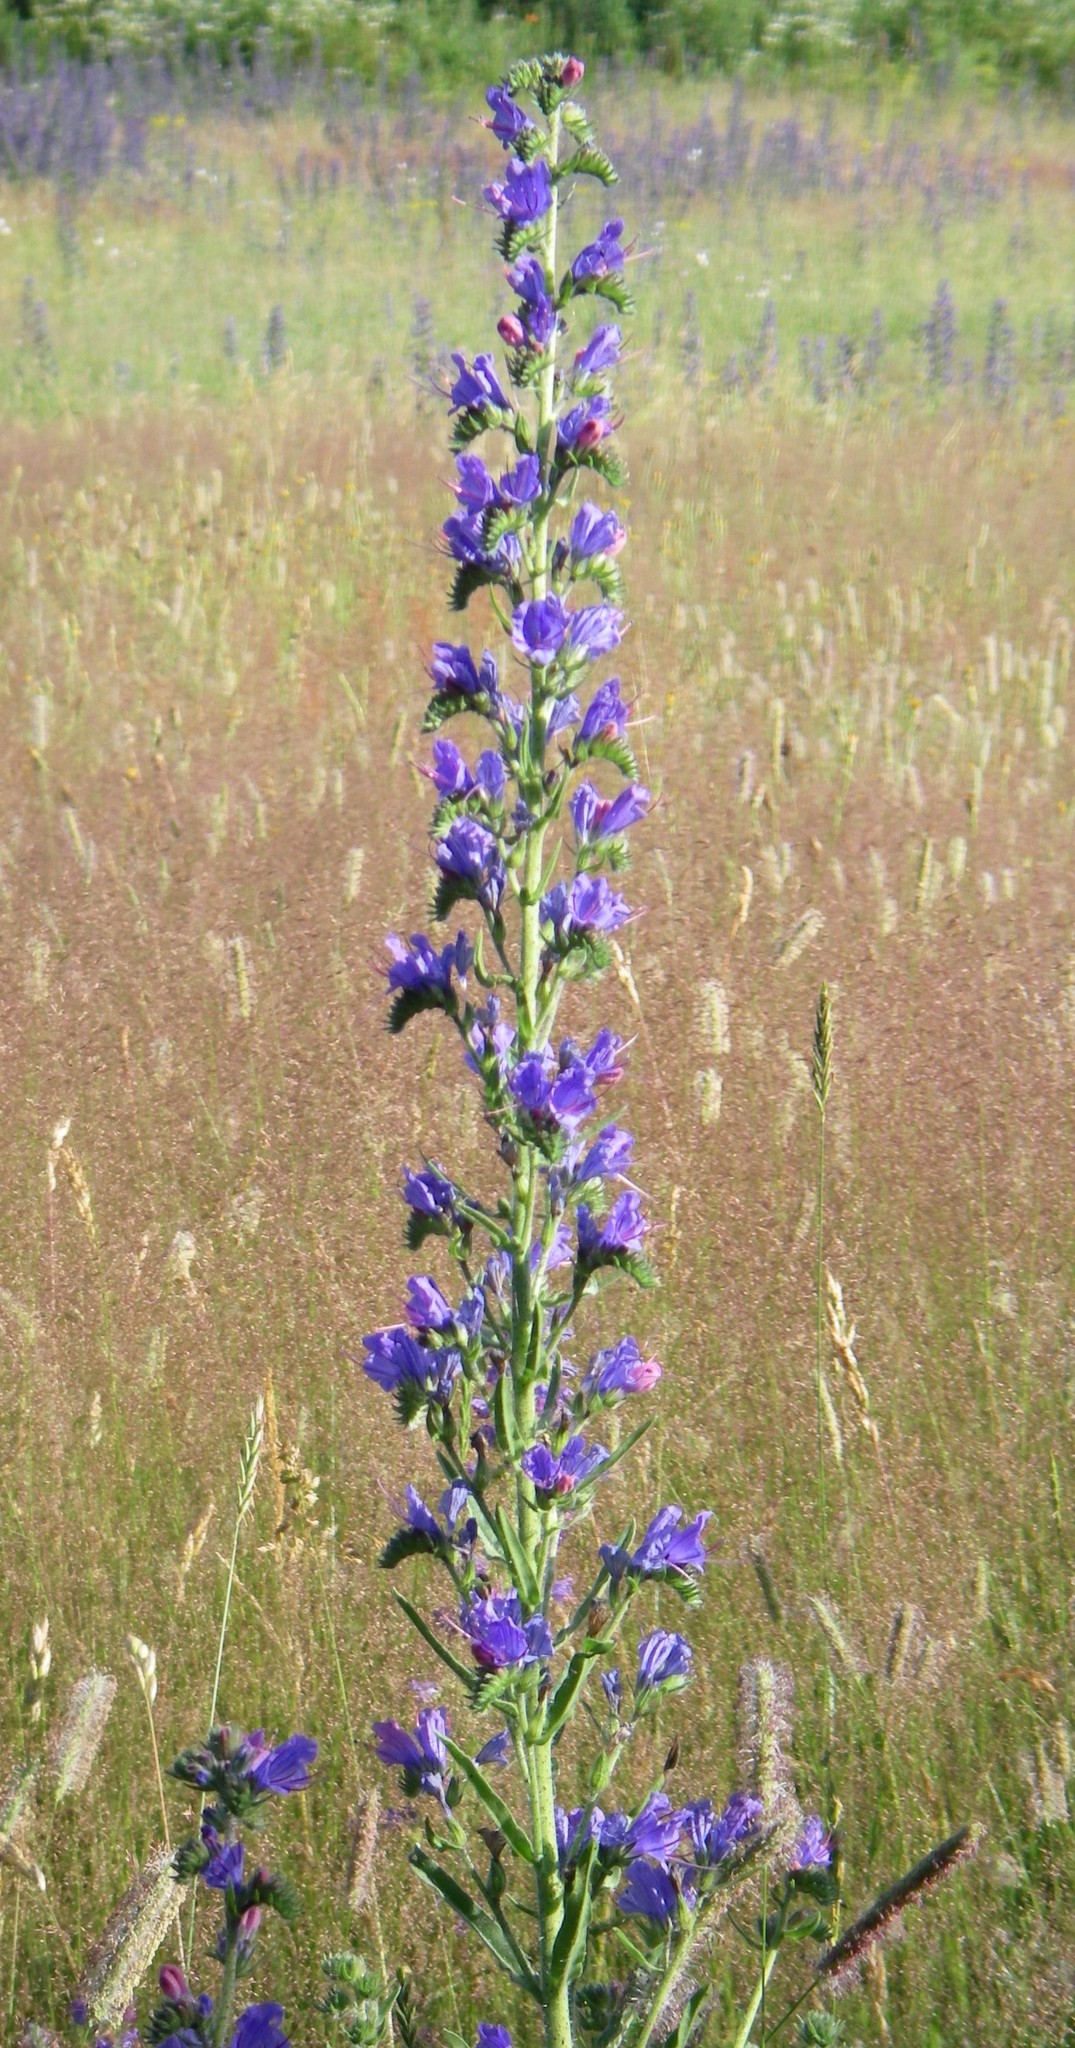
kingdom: Plantae
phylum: Tracheophyta
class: Magnoliopsida
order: Boraginales
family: Boraginaceae
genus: Echium
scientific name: Echium vulgare
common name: Common viper's bugloss
